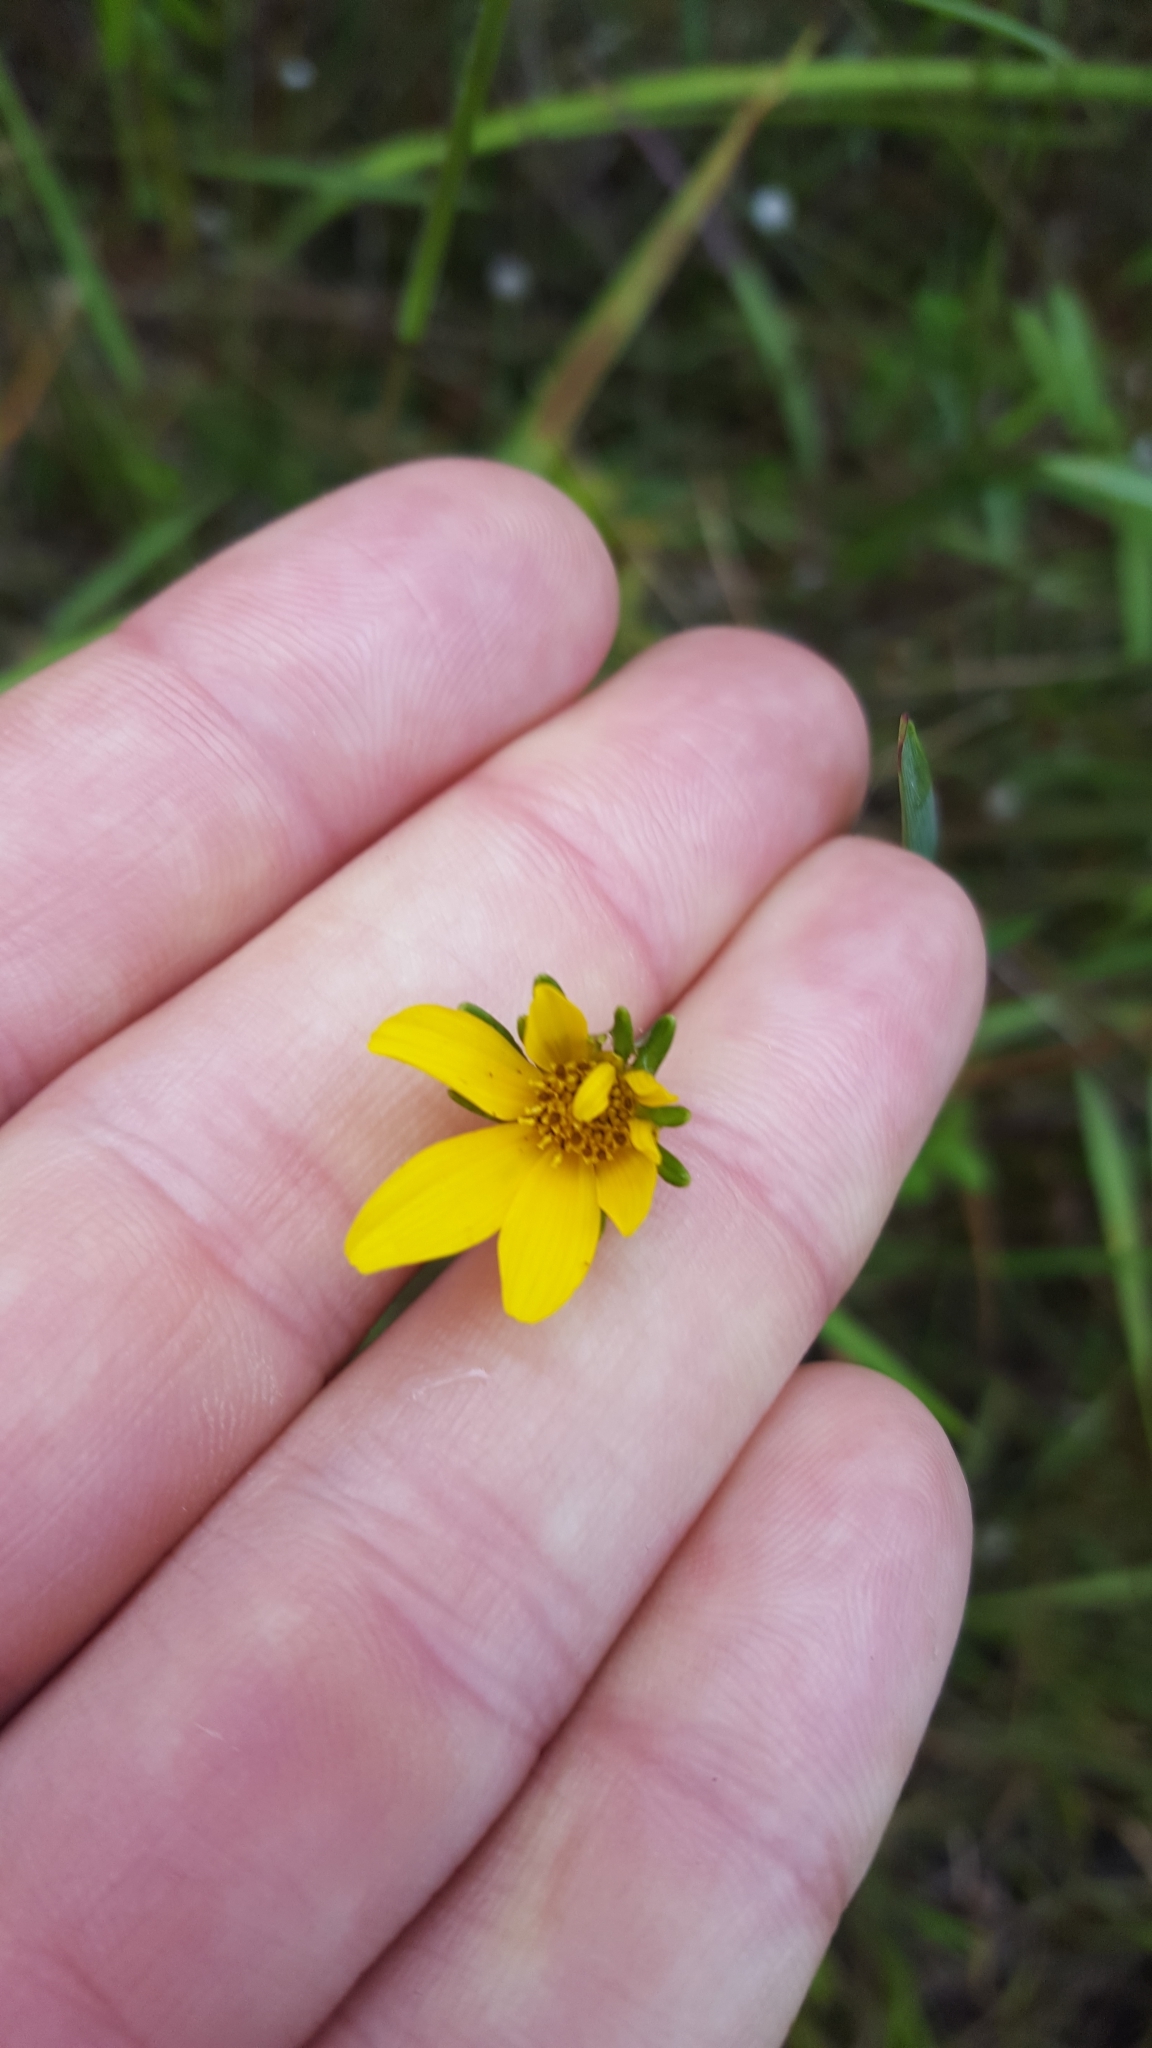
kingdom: Plantae
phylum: Tracheophyta
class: Magnoliopsida
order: Asterales
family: Asteraceae
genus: Bidens
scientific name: Bidens mitis
